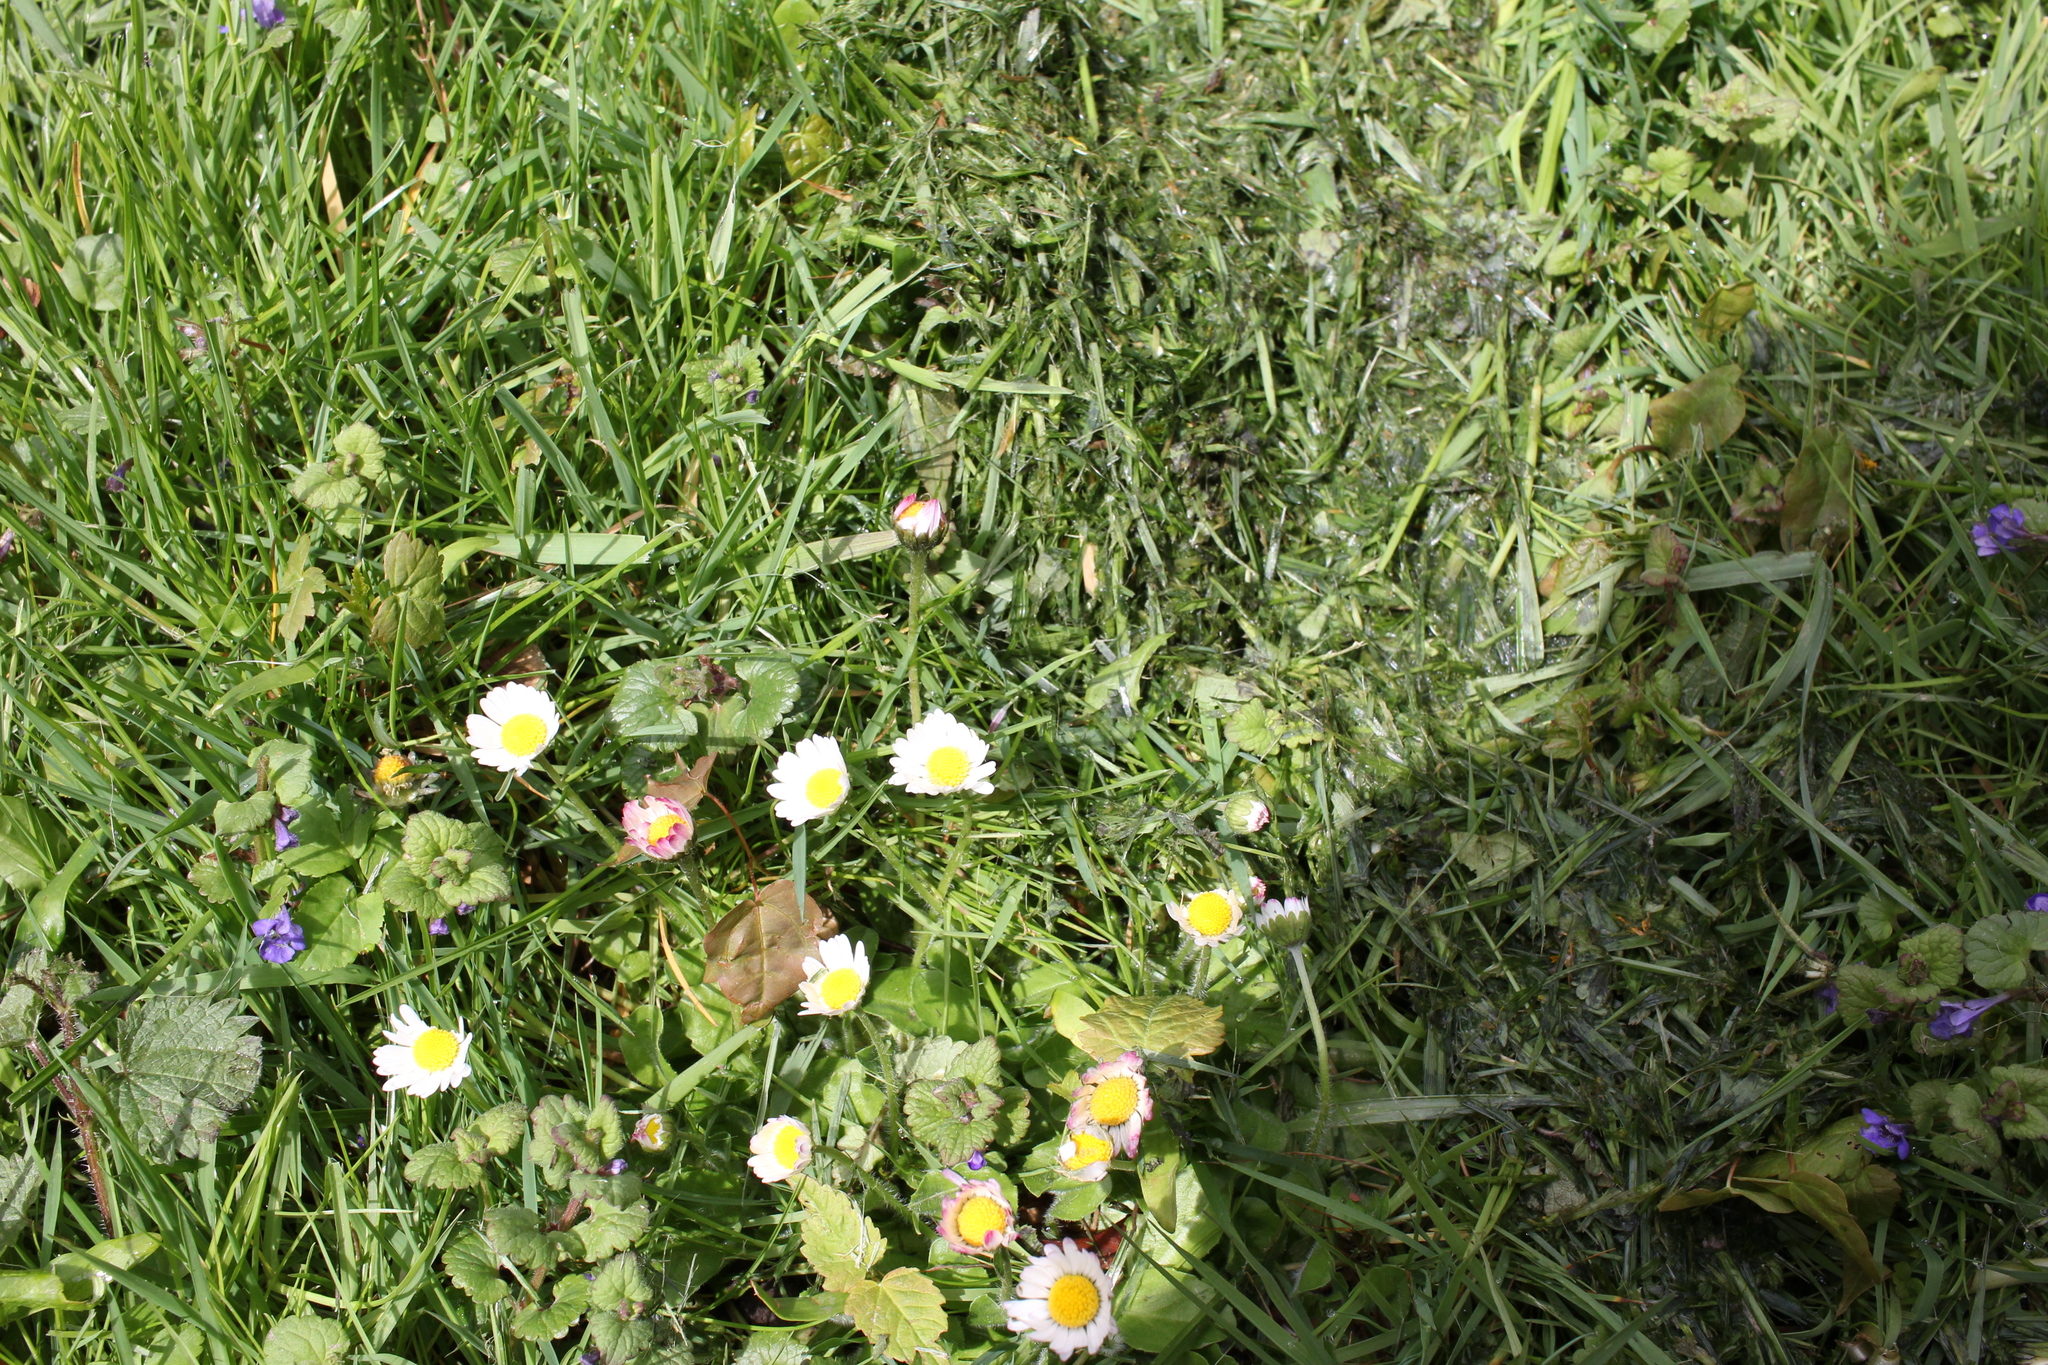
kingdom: Plantae
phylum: Tracheophyta
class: Magnoliopsida
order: Asterales
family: Asteraceae
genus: Bellis
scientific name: Bellis perennis
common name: Lawndaisy
